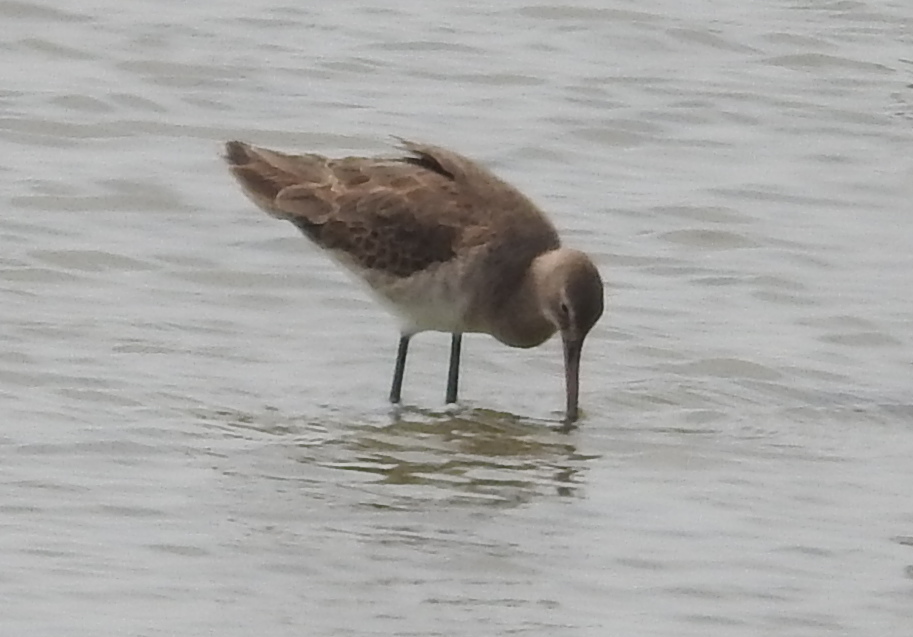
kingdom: Animalia
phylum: Chordata
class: Aves
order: Charadriiformes
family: Scolopacidae
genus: Limosa
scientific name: Limosa limosa
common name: Black-tailed godwit
